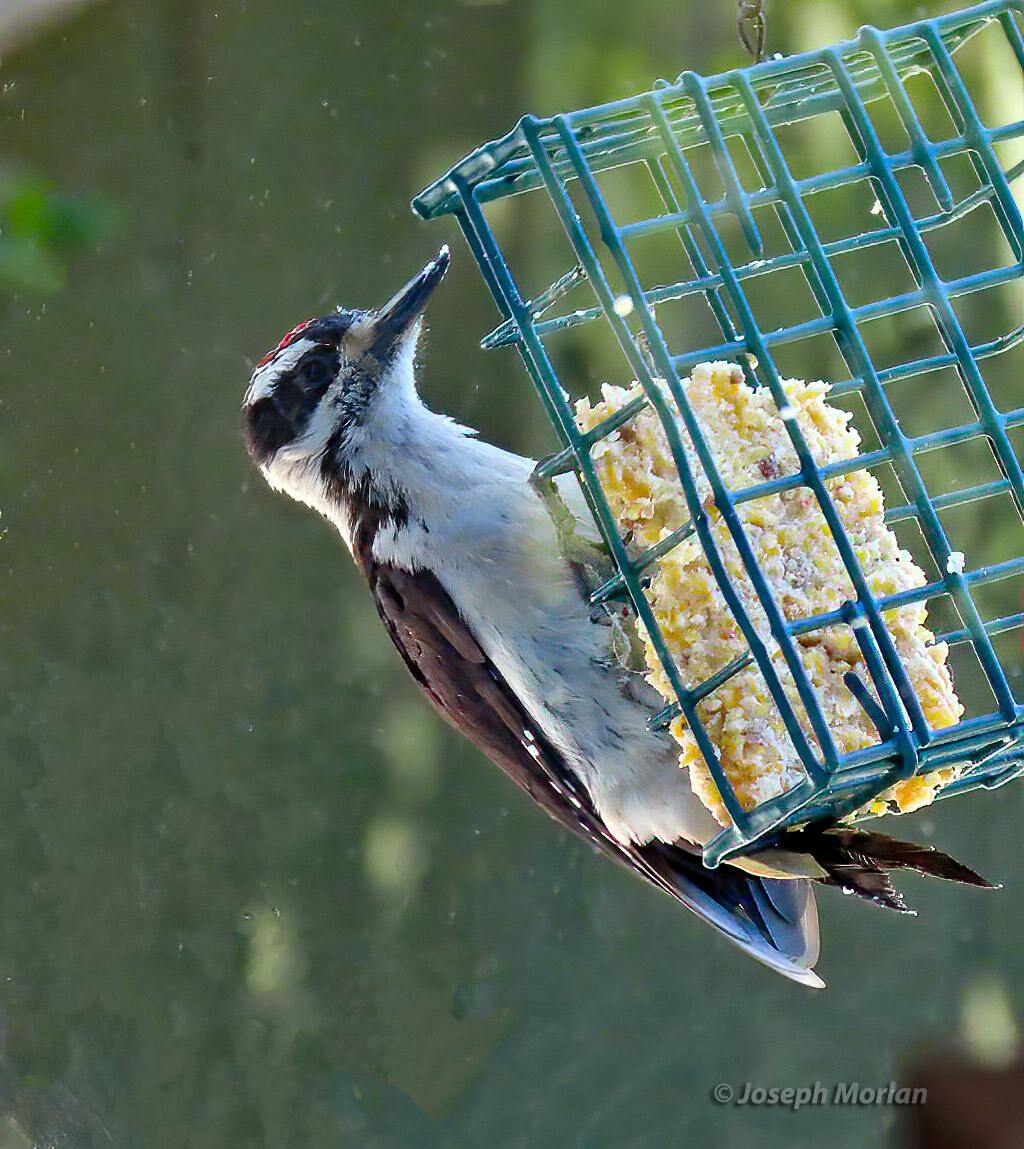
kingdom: Animalia
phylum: Chordata
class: Aves
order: Piciformes
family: Picidae
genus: Leuconotopicus
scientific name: Leuconotopicus villosus
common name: Hairy woodpecker
